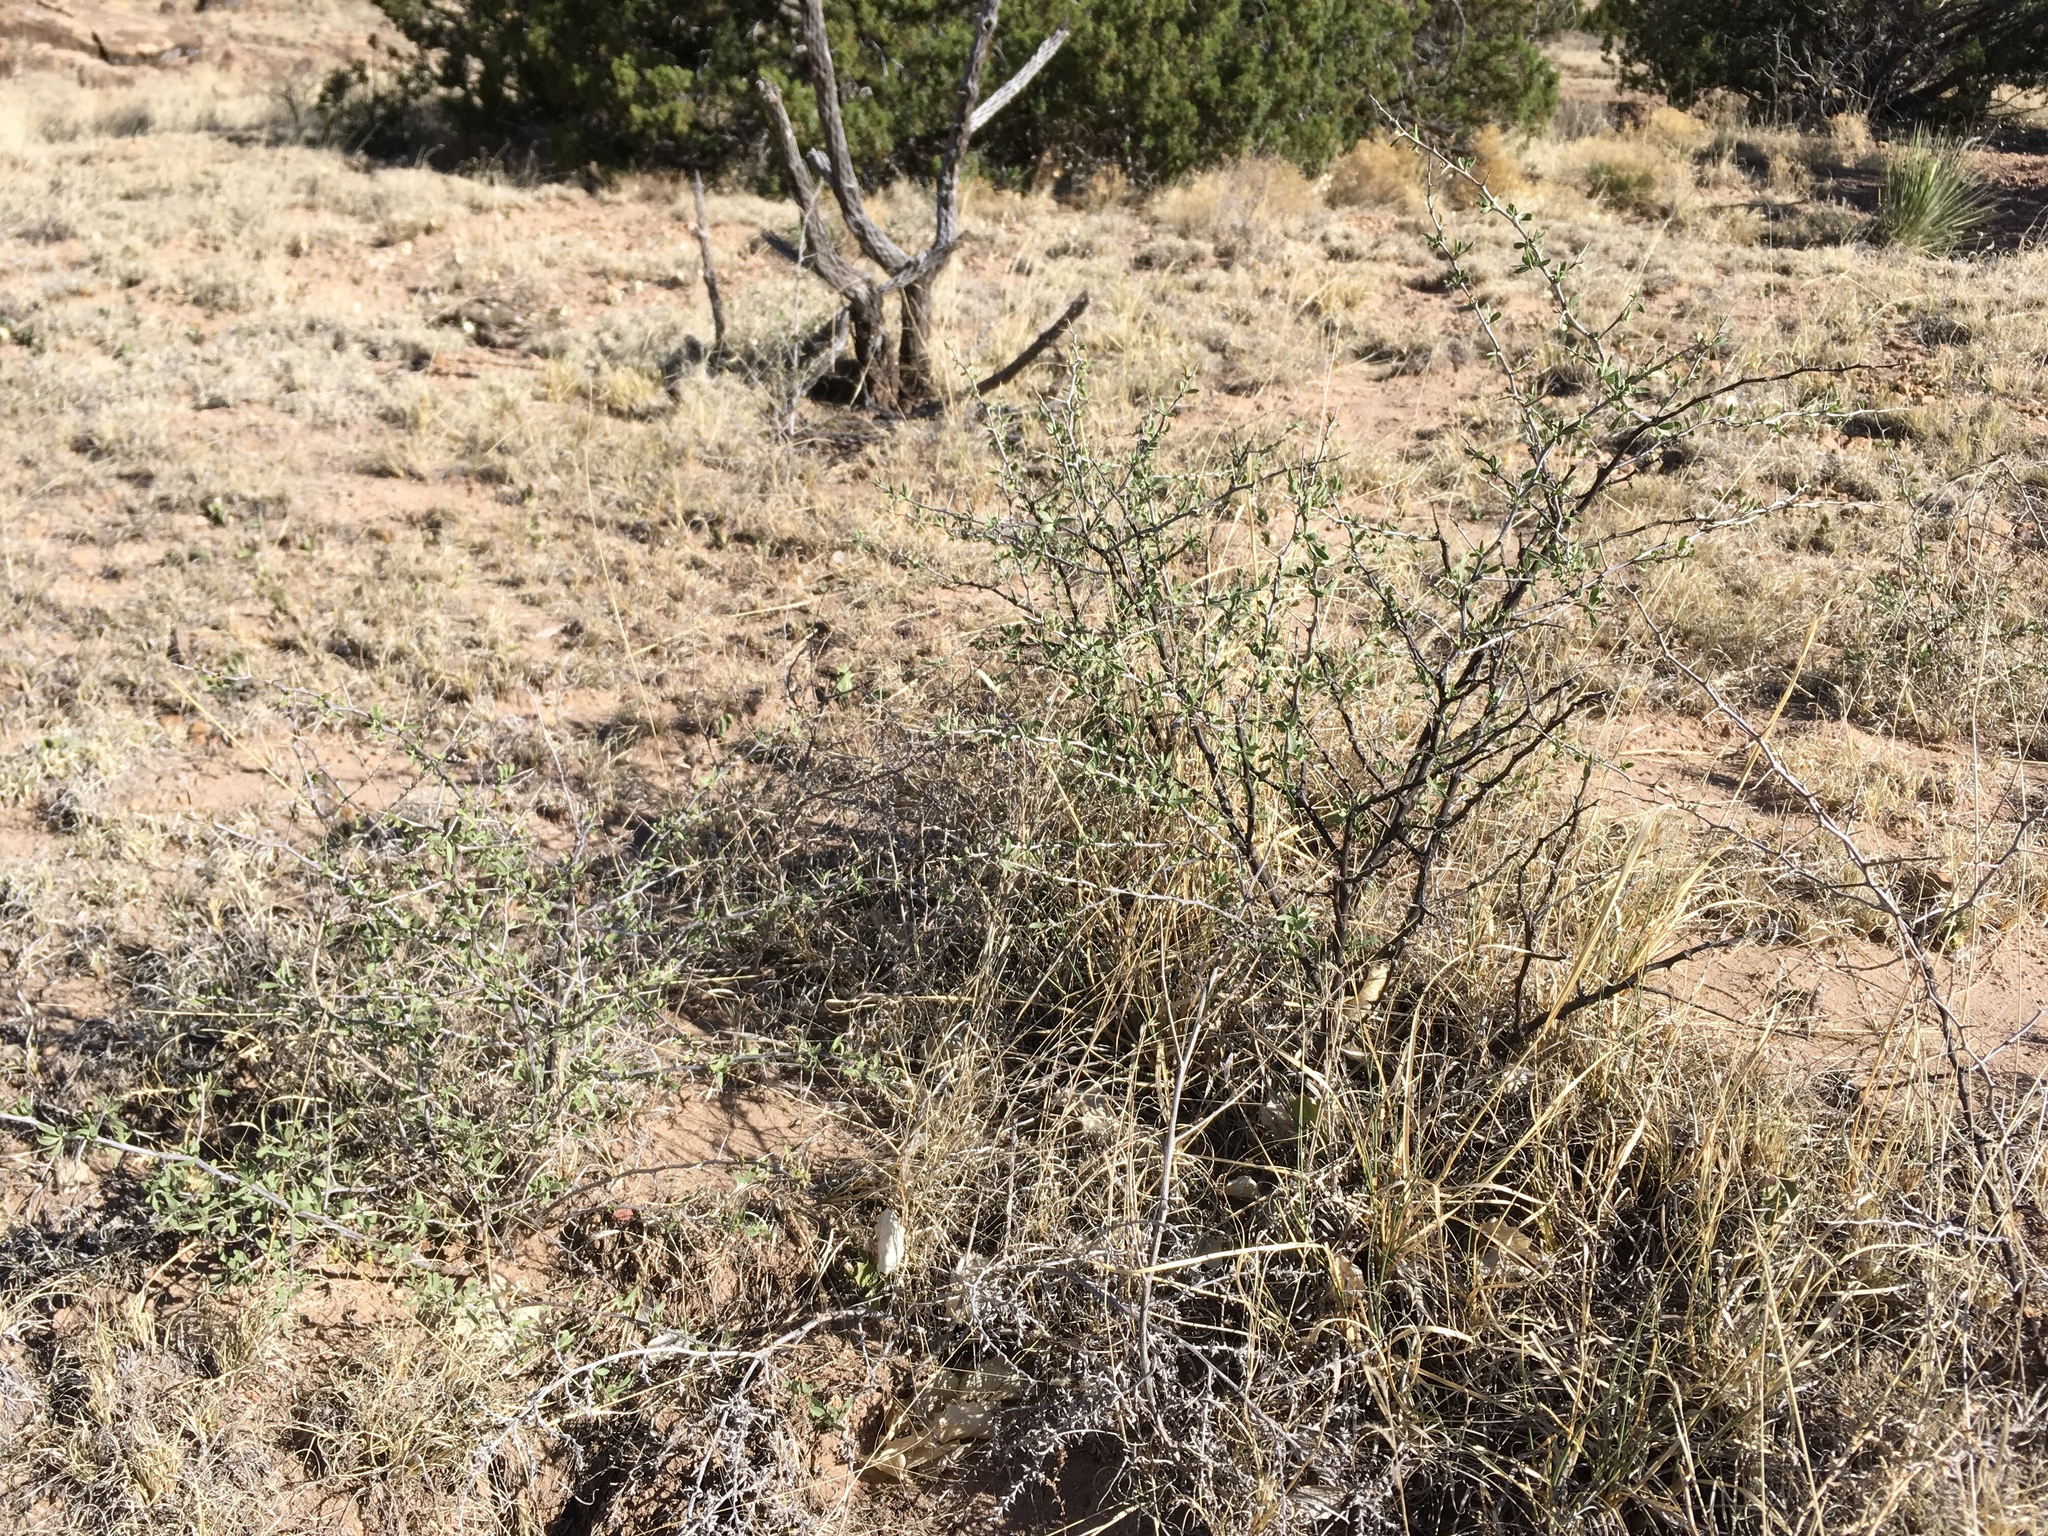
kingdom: Plantae
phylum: Tracheophyta
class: Magnoliopsida
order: Solanales
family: Solanaceae
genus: Lycium
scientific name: Lycium pallidum
